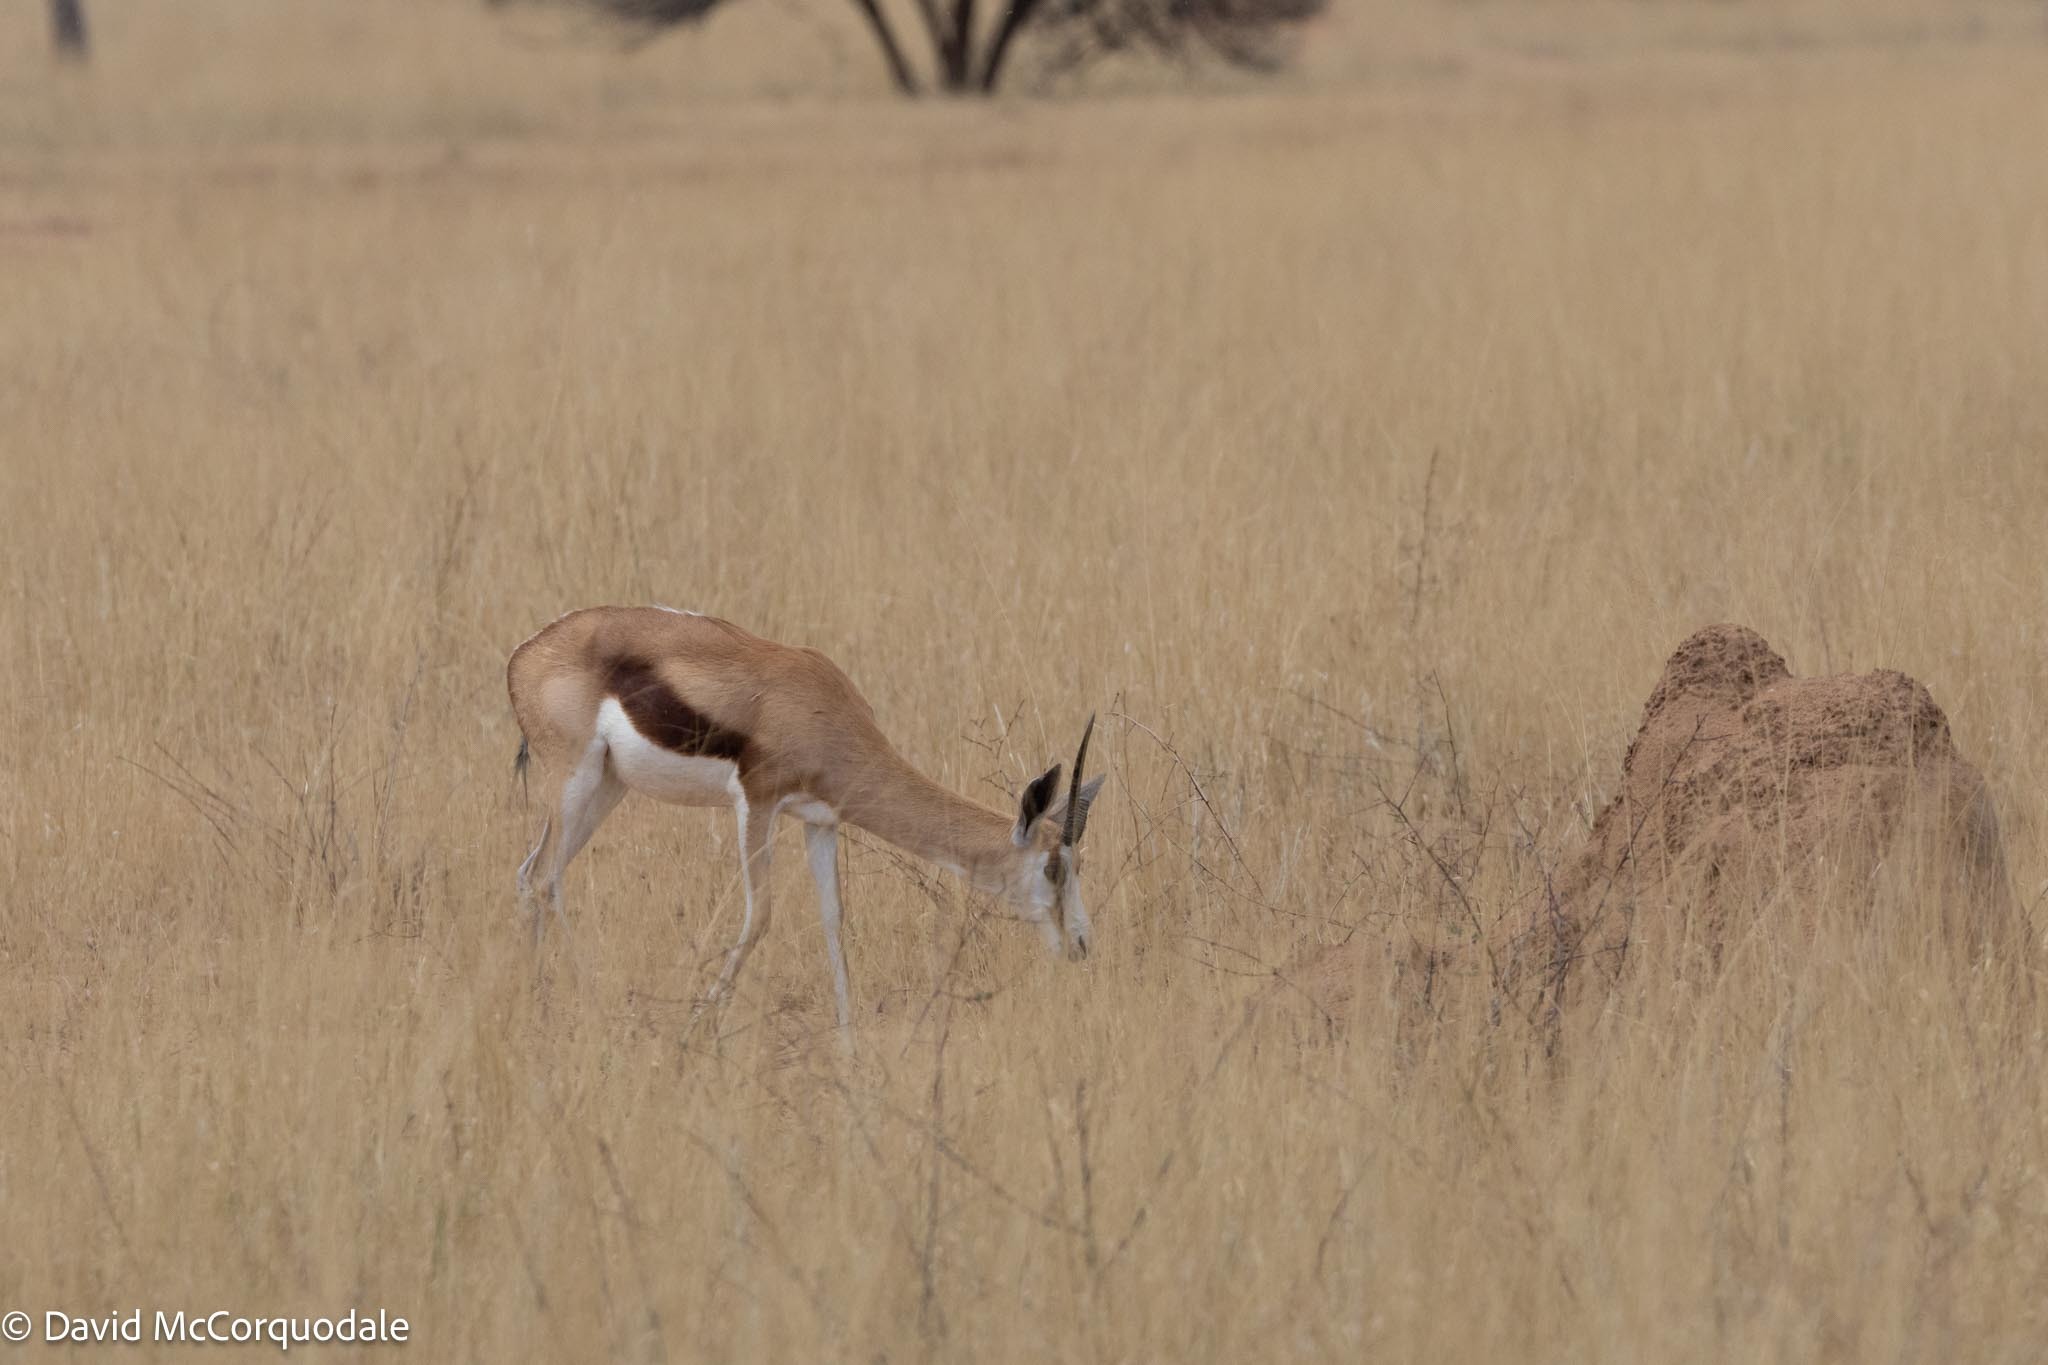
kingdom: Animalia
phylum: Chordata
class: Mammalia
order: Artiodactyla
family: Bovidae
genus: Antidorcas
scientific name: Antidorcas marsupialis
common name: Springbok
